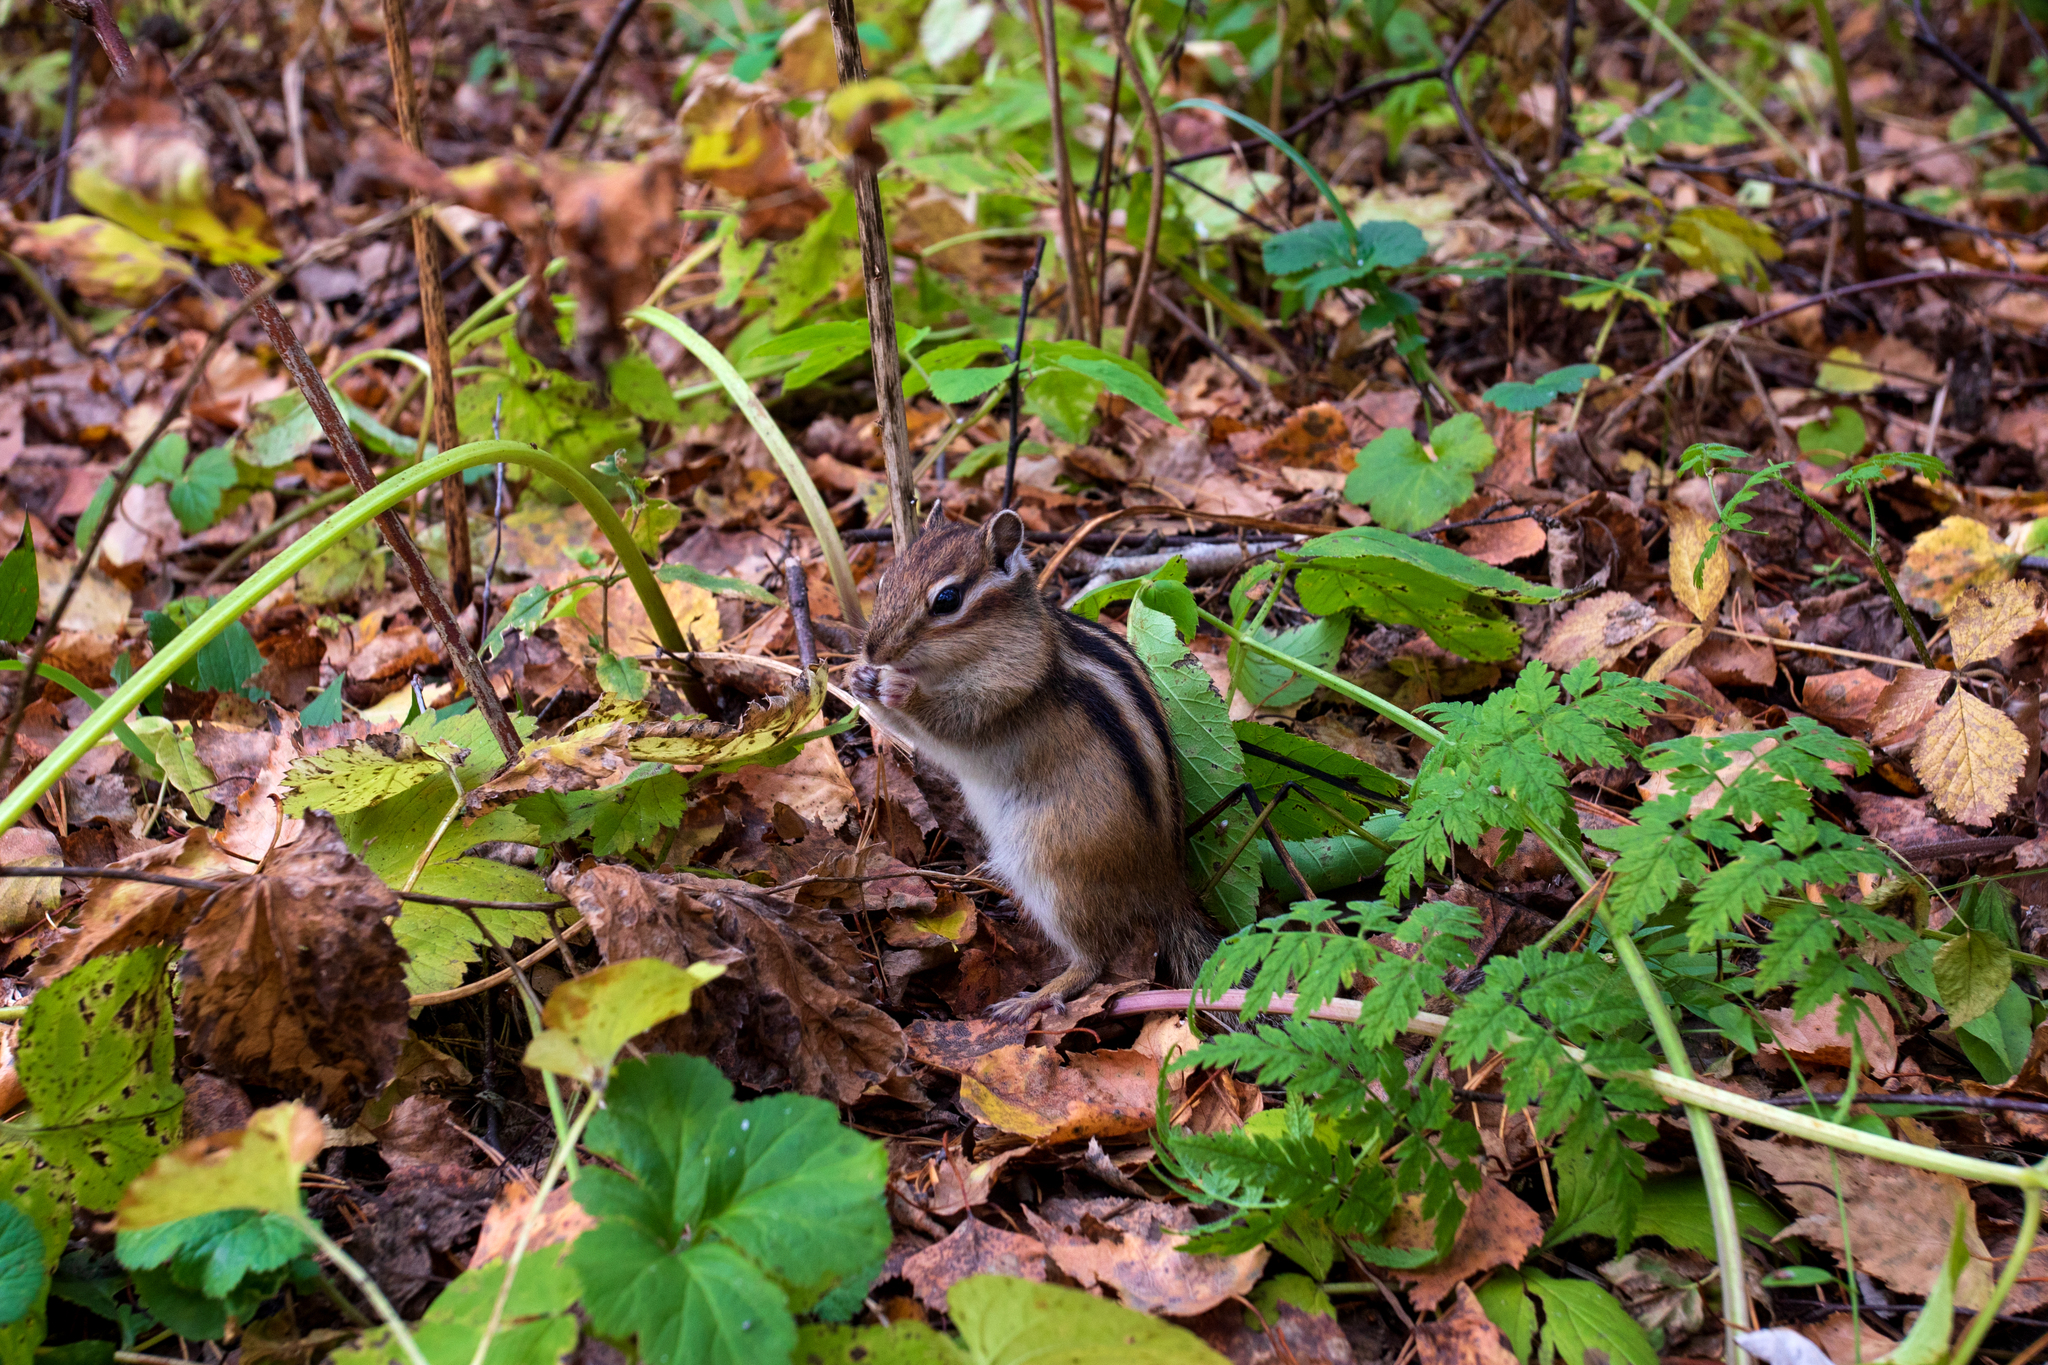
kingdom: Animalia
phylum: Chordata
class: Mammalia
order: Rodentia
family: Sciuridae
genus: Tamias
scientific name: Tamias sibiricus
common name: Siberian chipmunk
